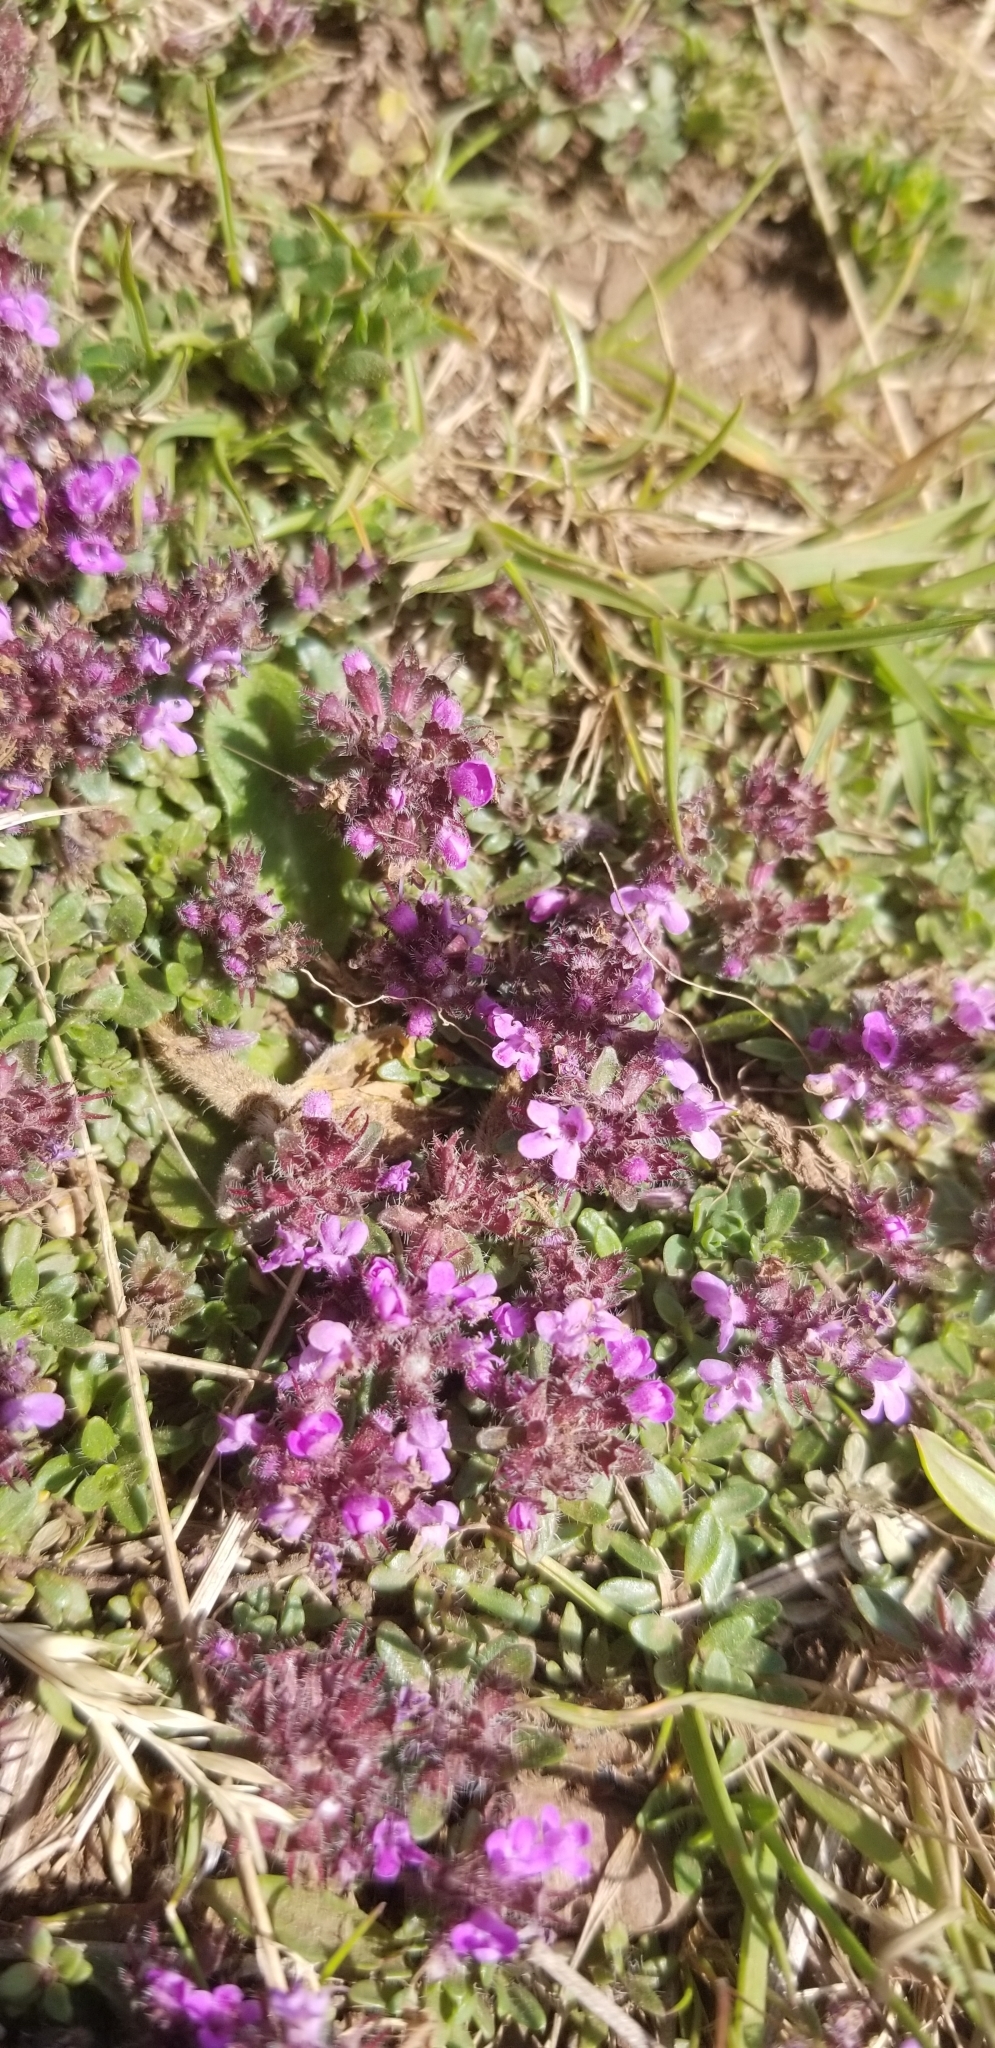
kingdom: Plantae
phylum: Tracheophyta
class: Magnoliopsida
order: Lamiales
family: Lamiaceae
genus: Thymus
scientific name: Thymus praecox
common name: Wild thyme
